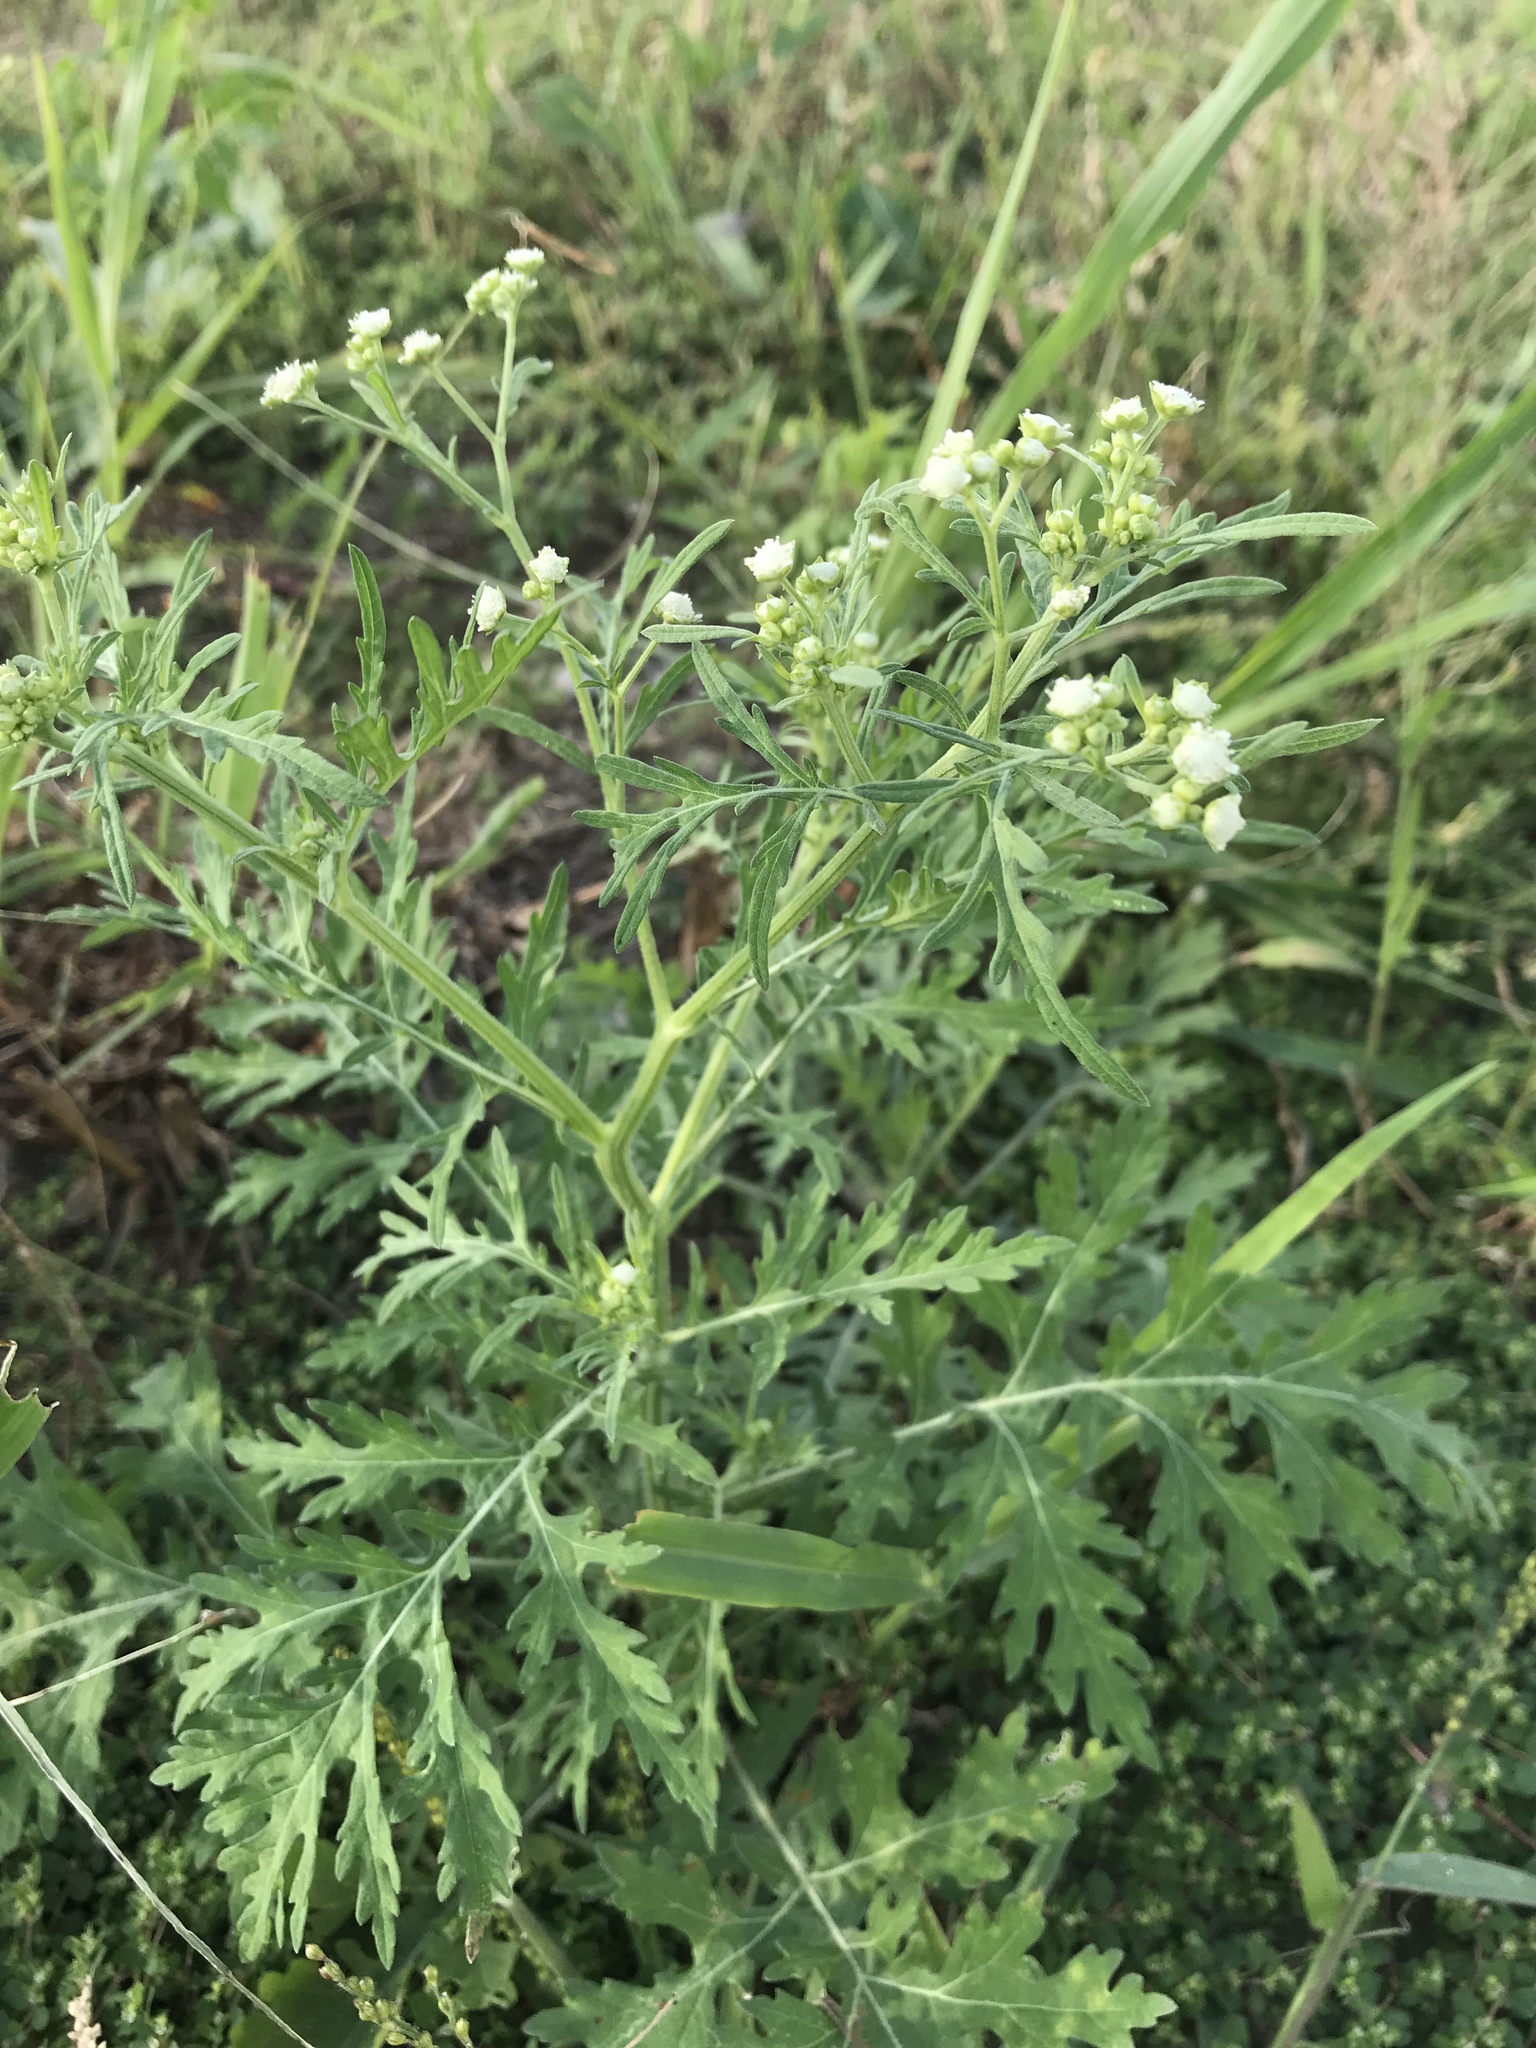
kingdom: Plantae
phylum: Tracheophyta
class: Magnoliopsida
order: Asterales
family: Asteraceae
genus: Parthenium
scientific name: Parthenium hysterophorus
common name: Santa maria feverfew
